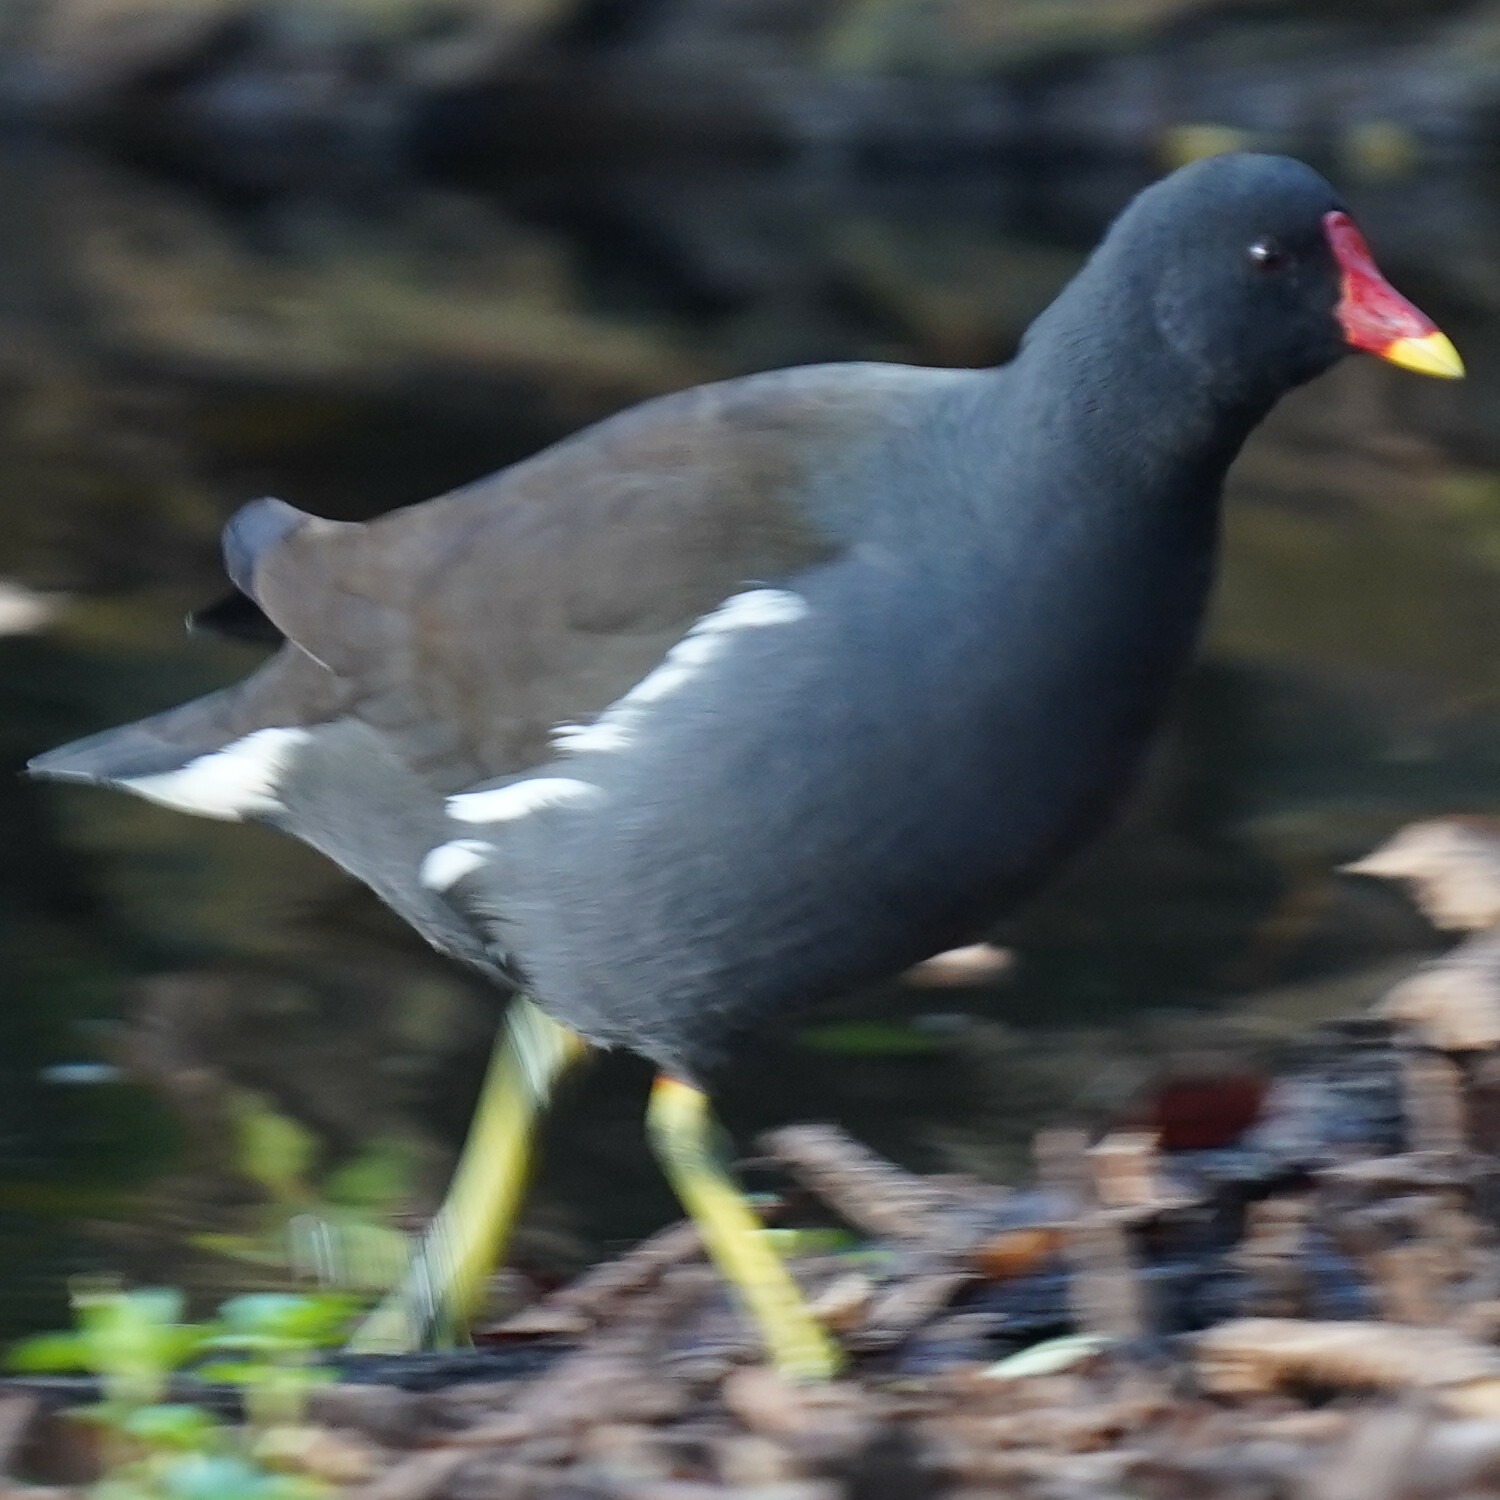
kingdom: Animalia
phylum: Chordata
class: Aves
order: Gruiformes
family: Rallidae
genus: Gallinula
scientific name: Gallinula chloropus
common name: Common moorhen
